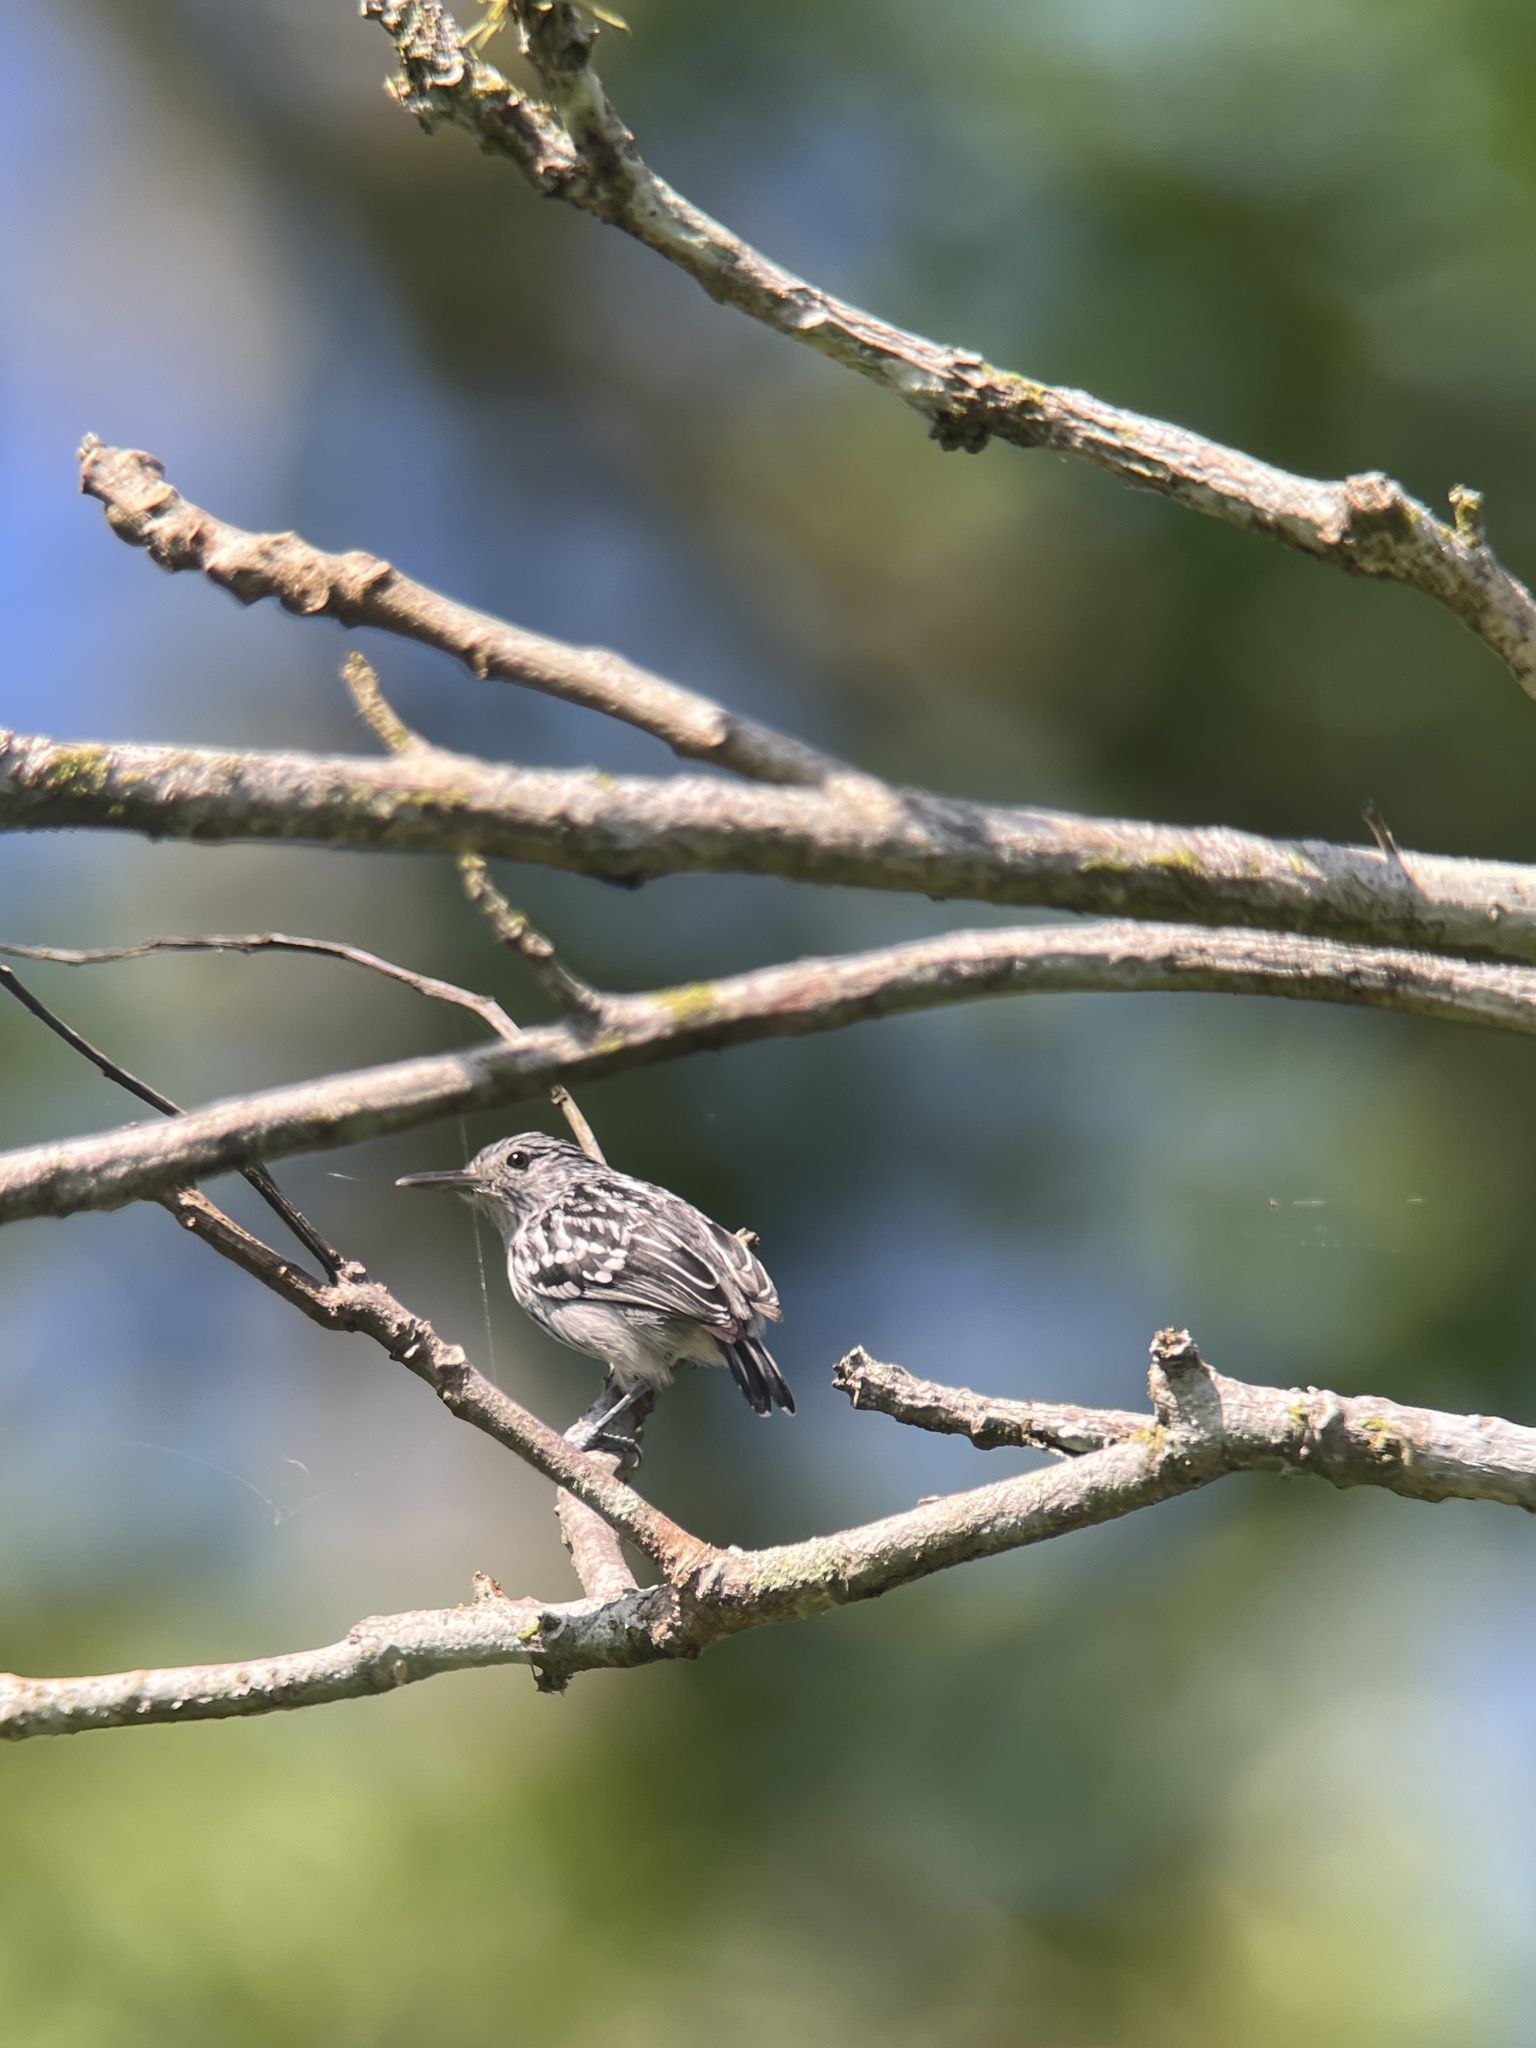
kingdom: Animalia
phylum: Chordata
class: Aves
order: Passeriformes
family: Thamnophilidae
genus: Myrmotherula
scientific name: Myrmotherula pacifica
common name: Pacific antwren
